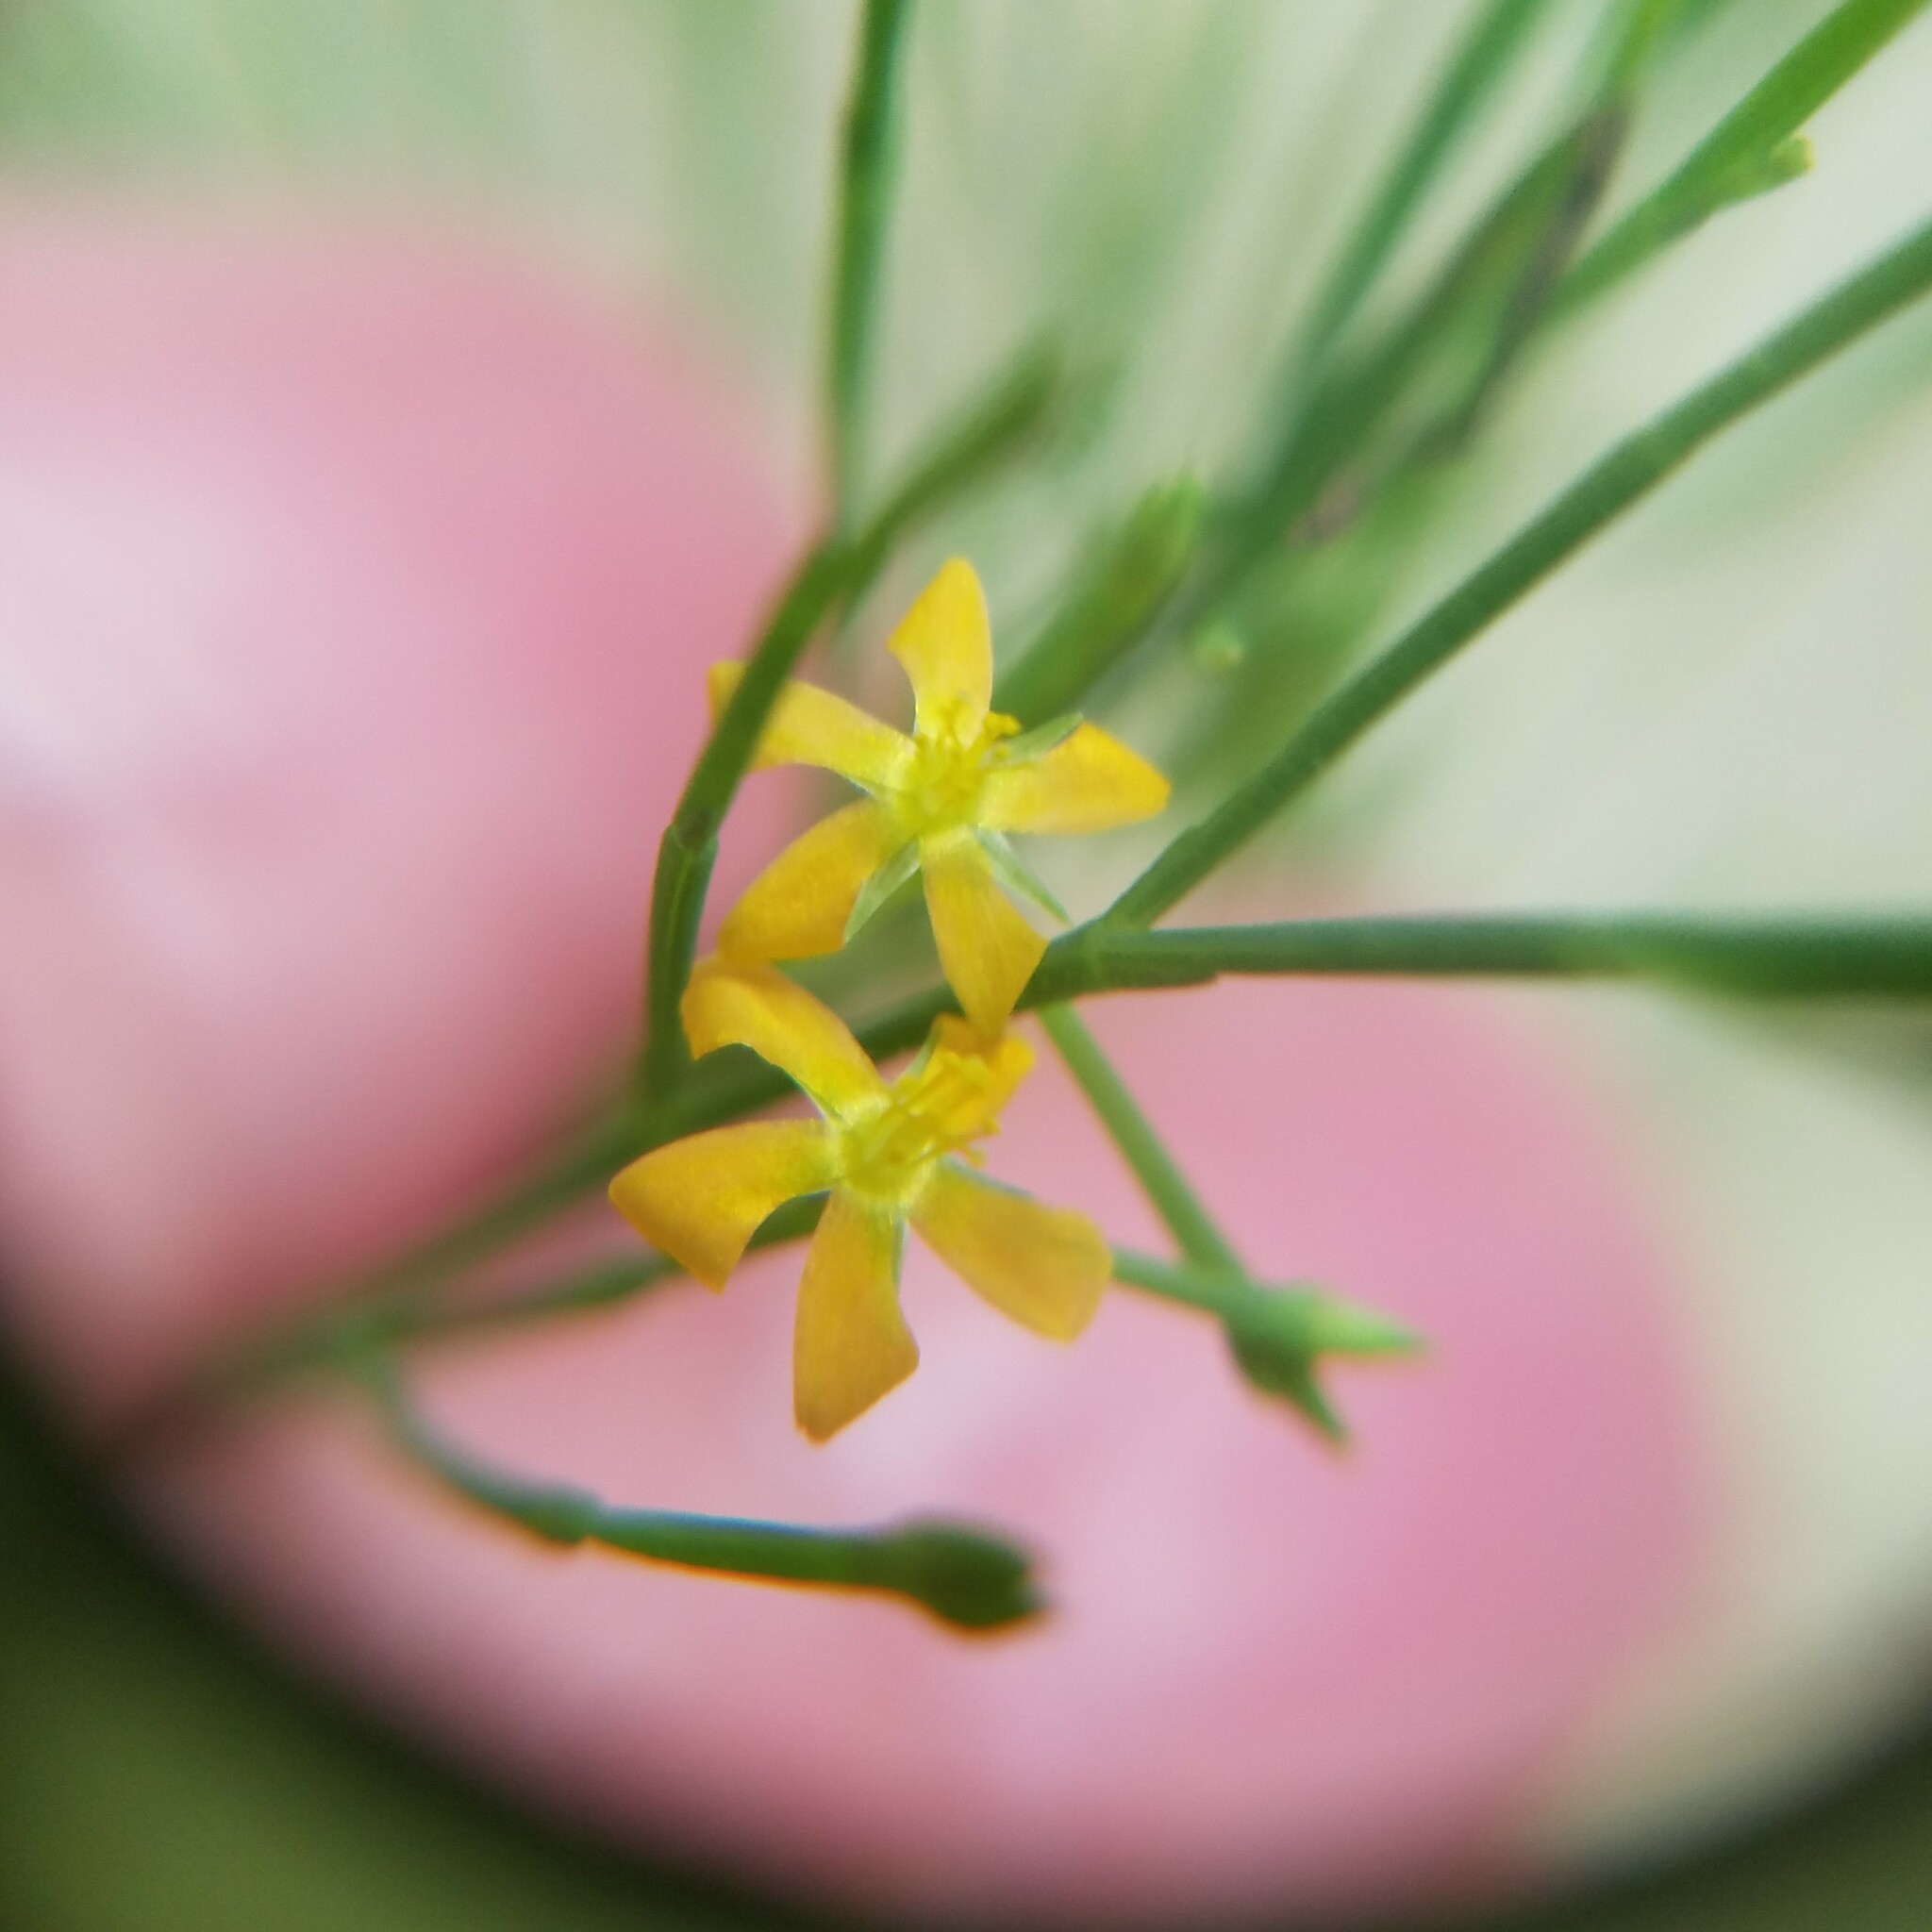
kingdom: Plantae
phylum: Tracheophyta
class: Magnoliopsida
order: Malpighiales
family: Hypericaceae
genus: Hypericum
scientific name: Hypericum gentianoides
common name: Gentian-leaved st. john's-wort
